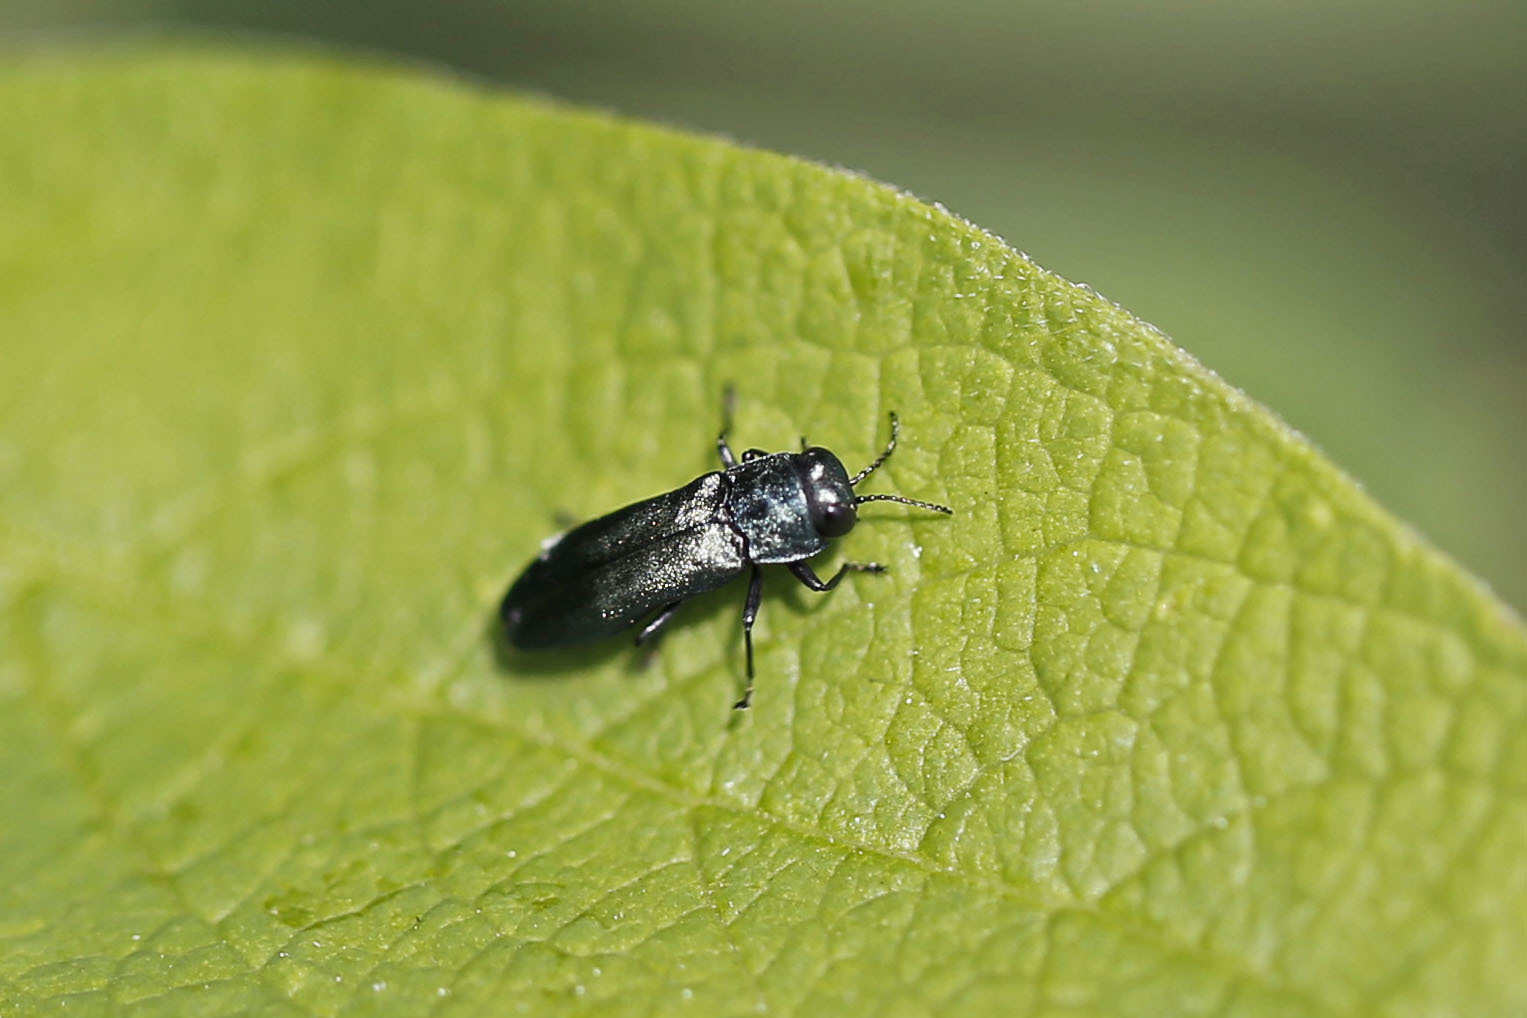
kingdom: Animalia
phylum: Arthropoda
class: Insecta
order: Coleoptera
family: Buprestidae
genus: Agrilus
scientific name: Agrilus cyanescens
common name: Bluish borer beetle
